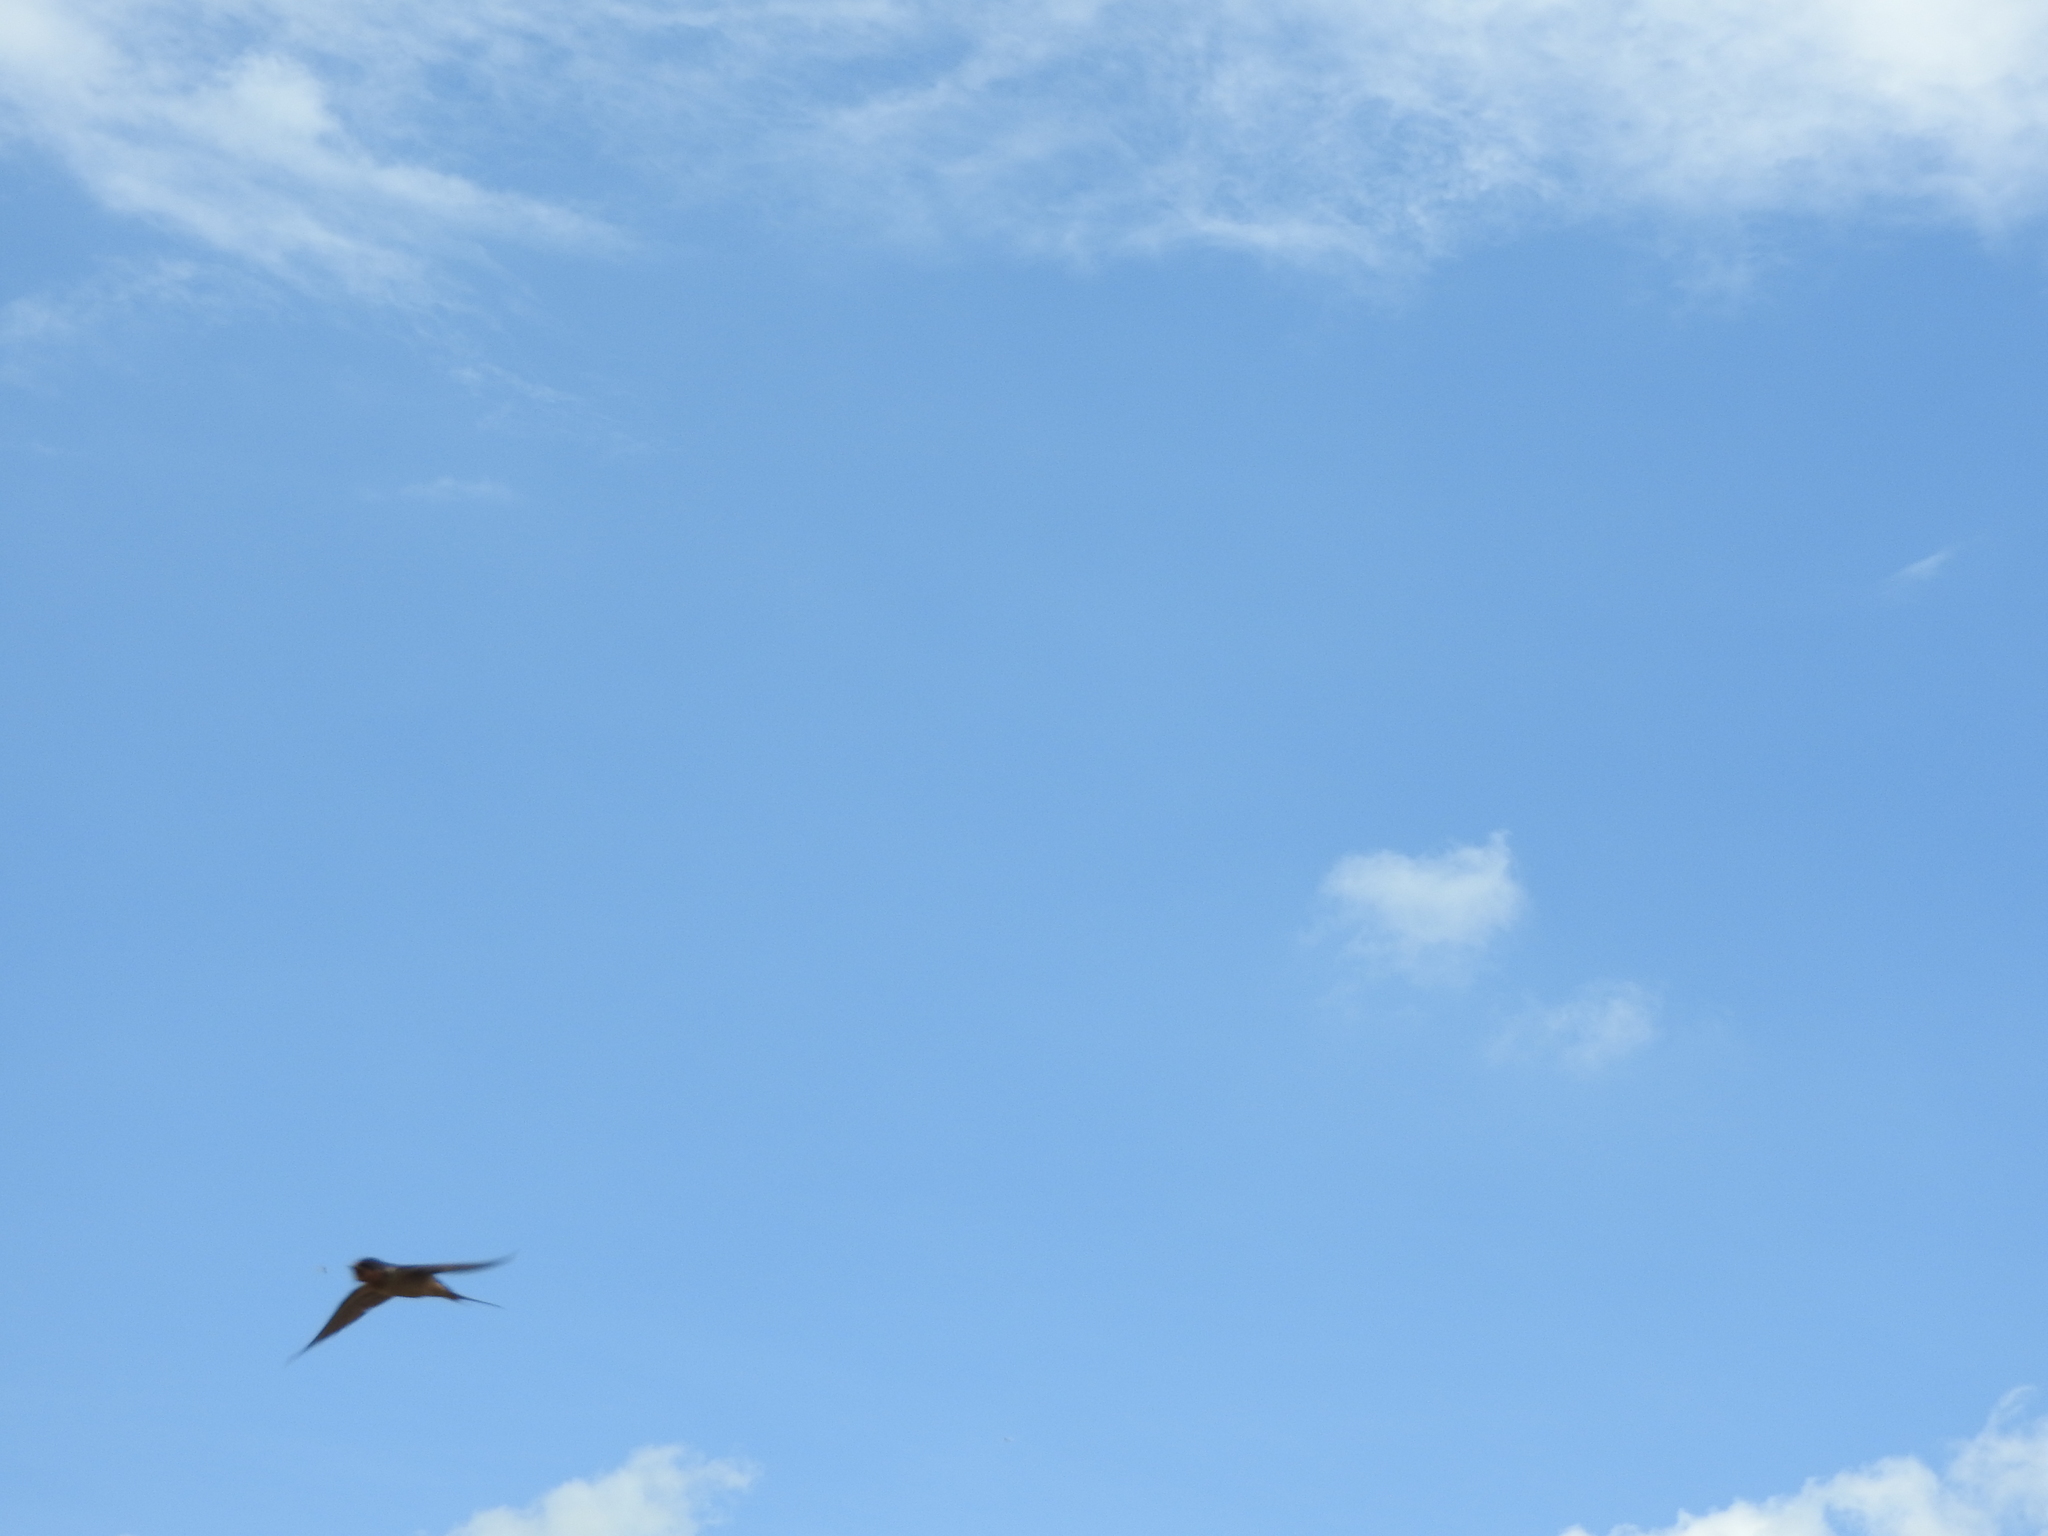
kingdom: Animalia
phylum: Chordata
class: Aves
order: Passeriformes
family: Hirundinidae
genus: Hirundo
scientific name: Hirundo rustica
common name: Barn swallow
